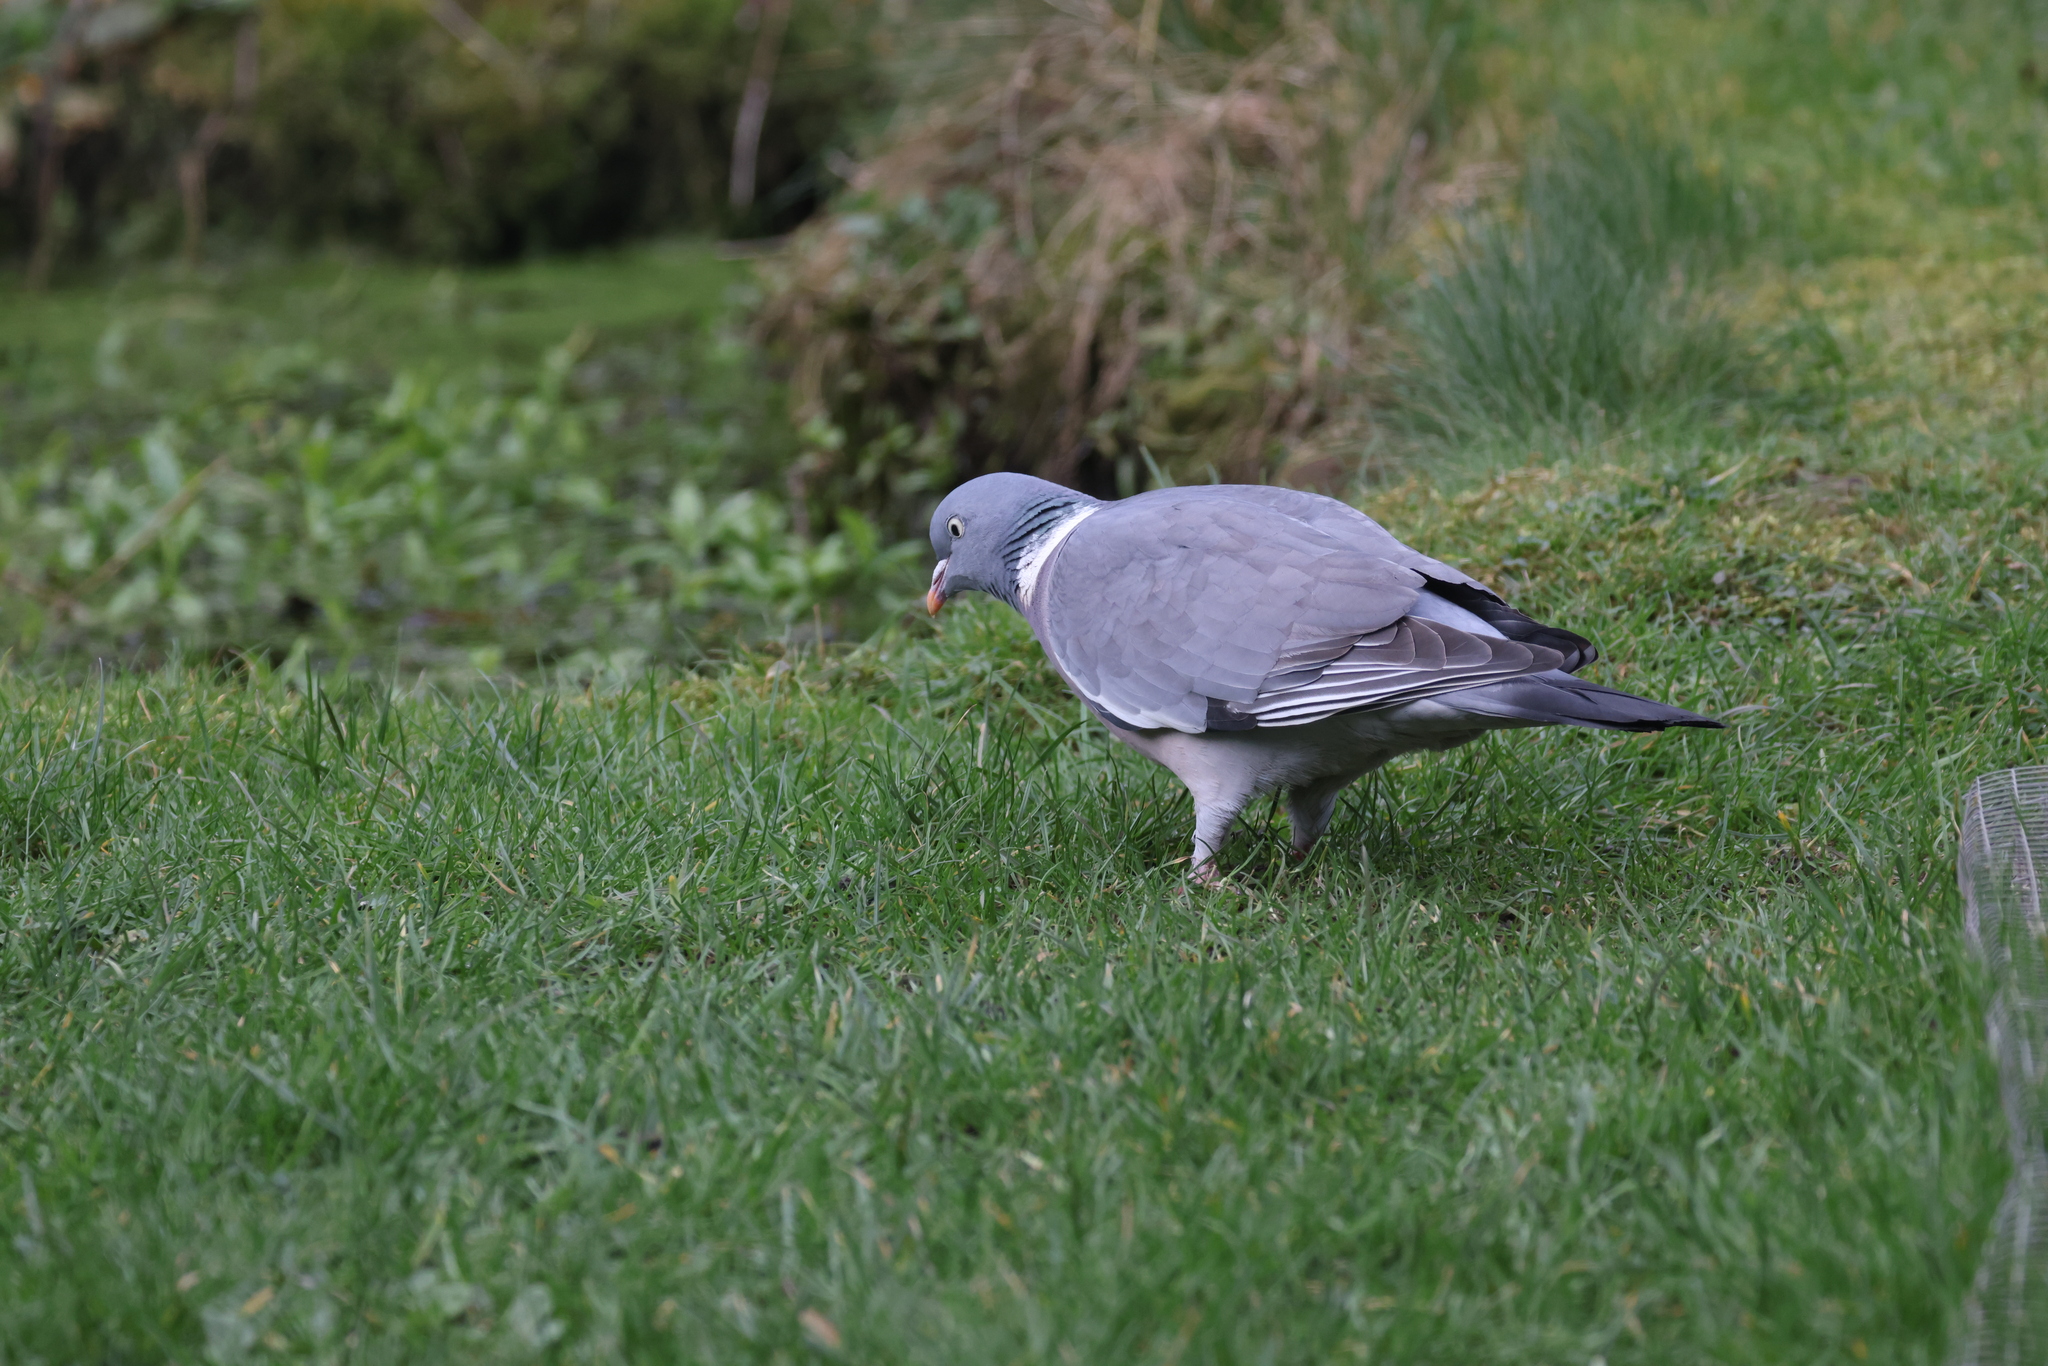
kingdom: Animalia
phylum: Chordata
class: Aves
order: Columbiformes
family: Columbidae
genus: Columba
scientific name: Columba palumbus
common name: Common wood pigeon
